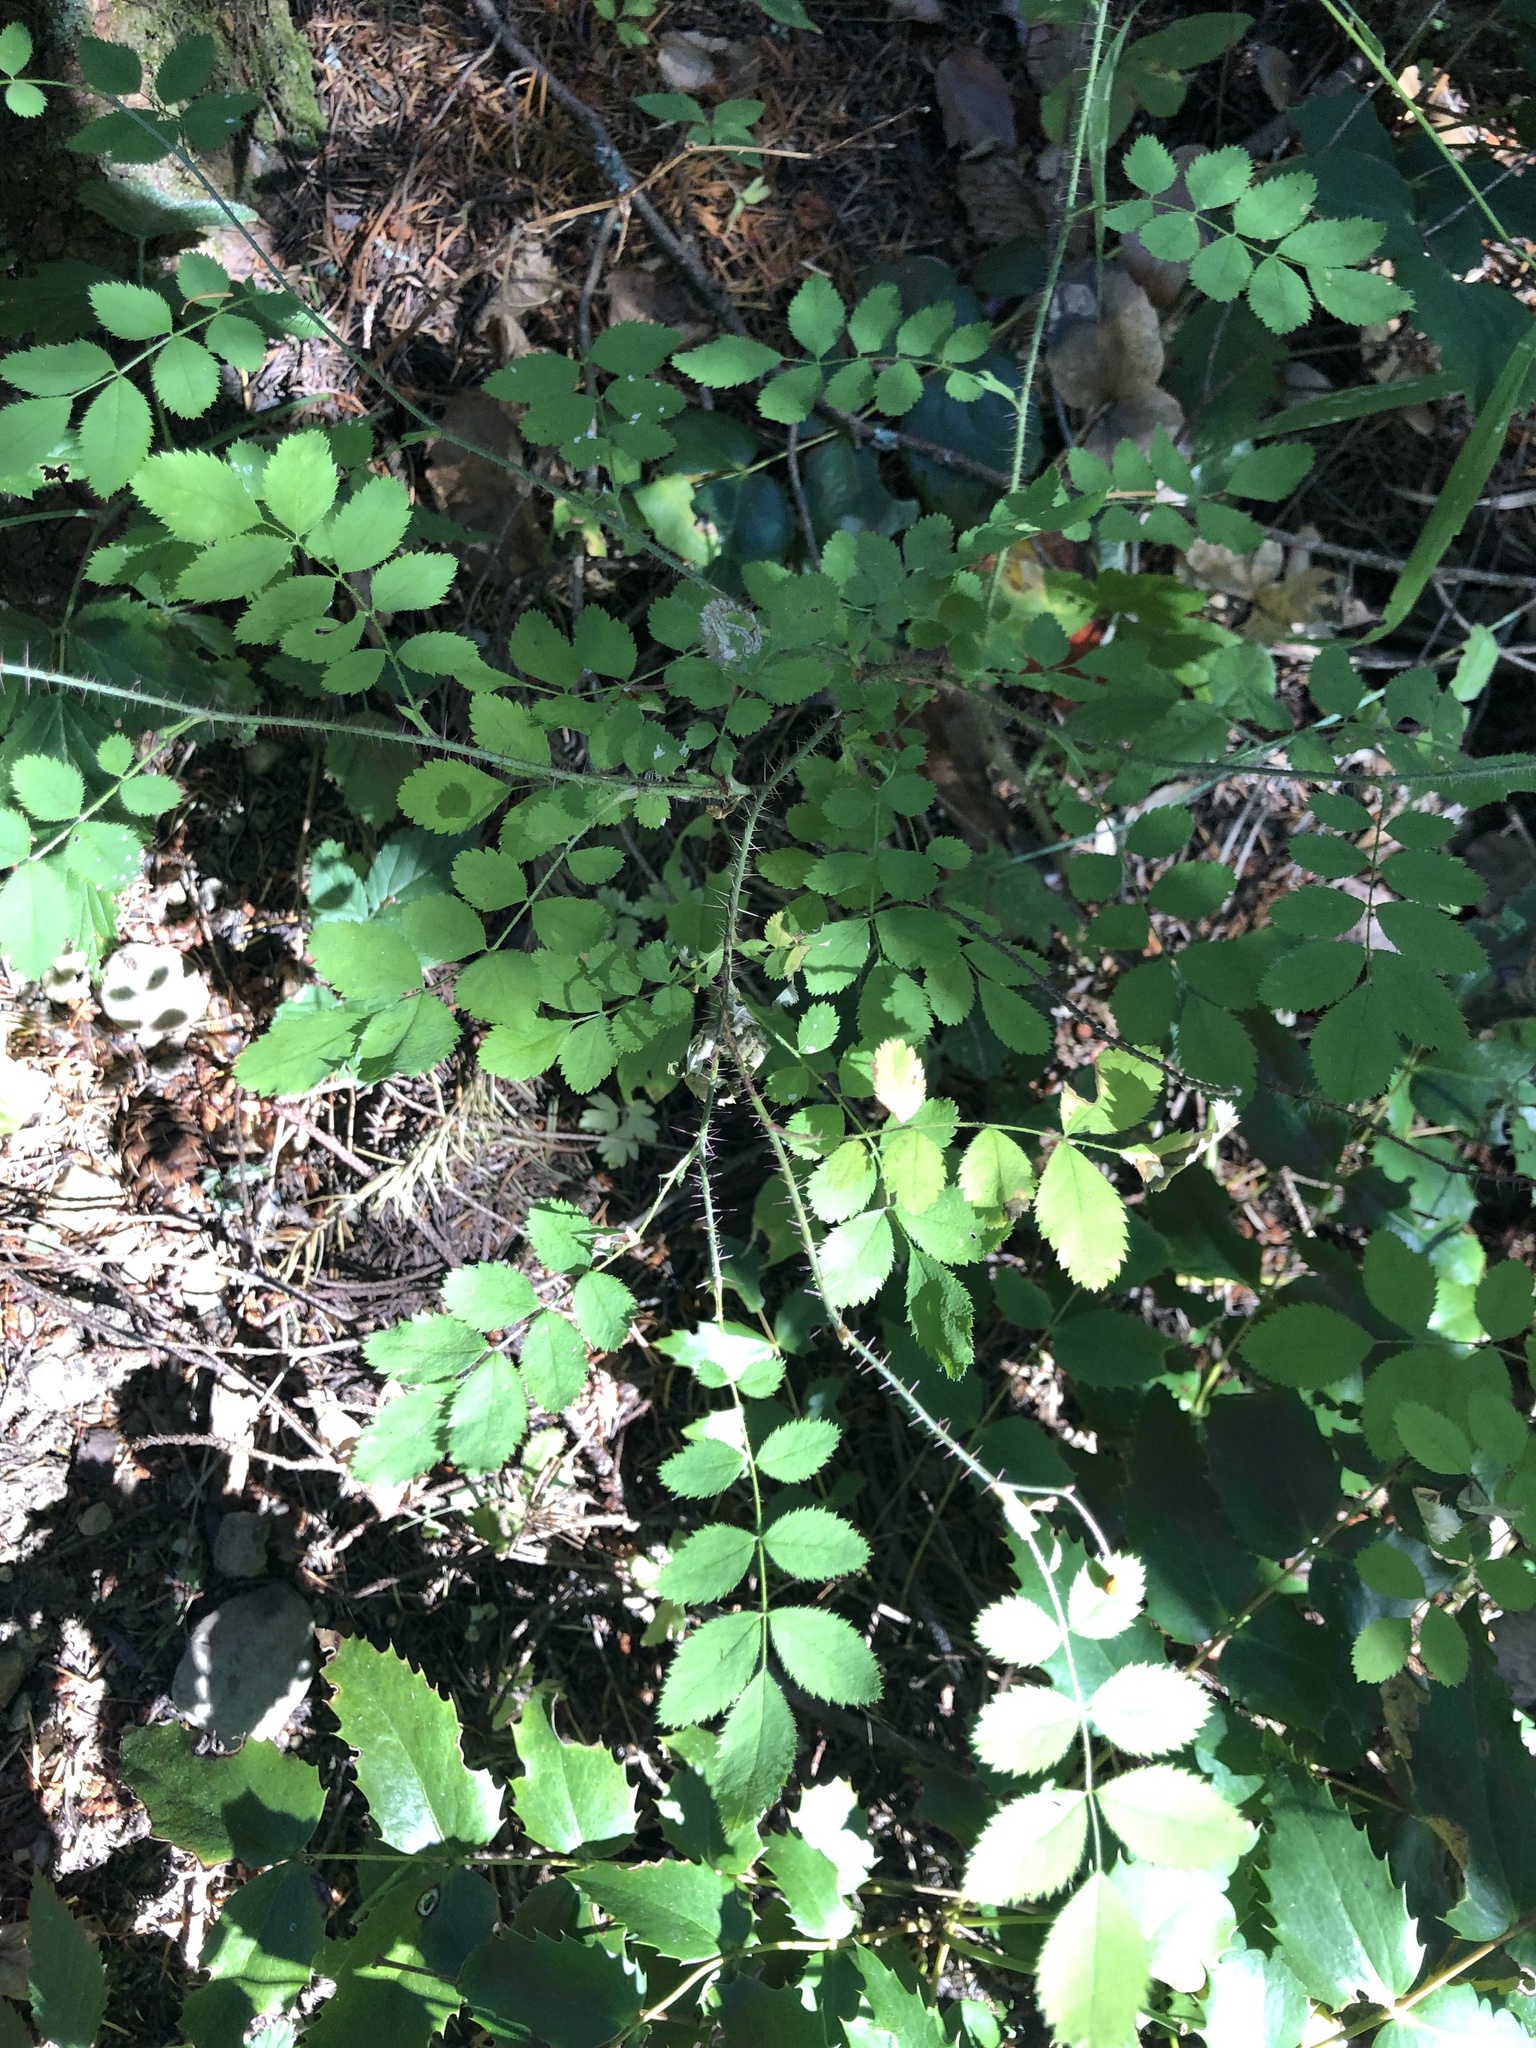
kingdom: Plantae
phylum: Tracheophyta
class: Magnoliopsida
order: Rosales
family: Rosaceae
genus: Rosa
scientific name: Rosa gymnocarpa
